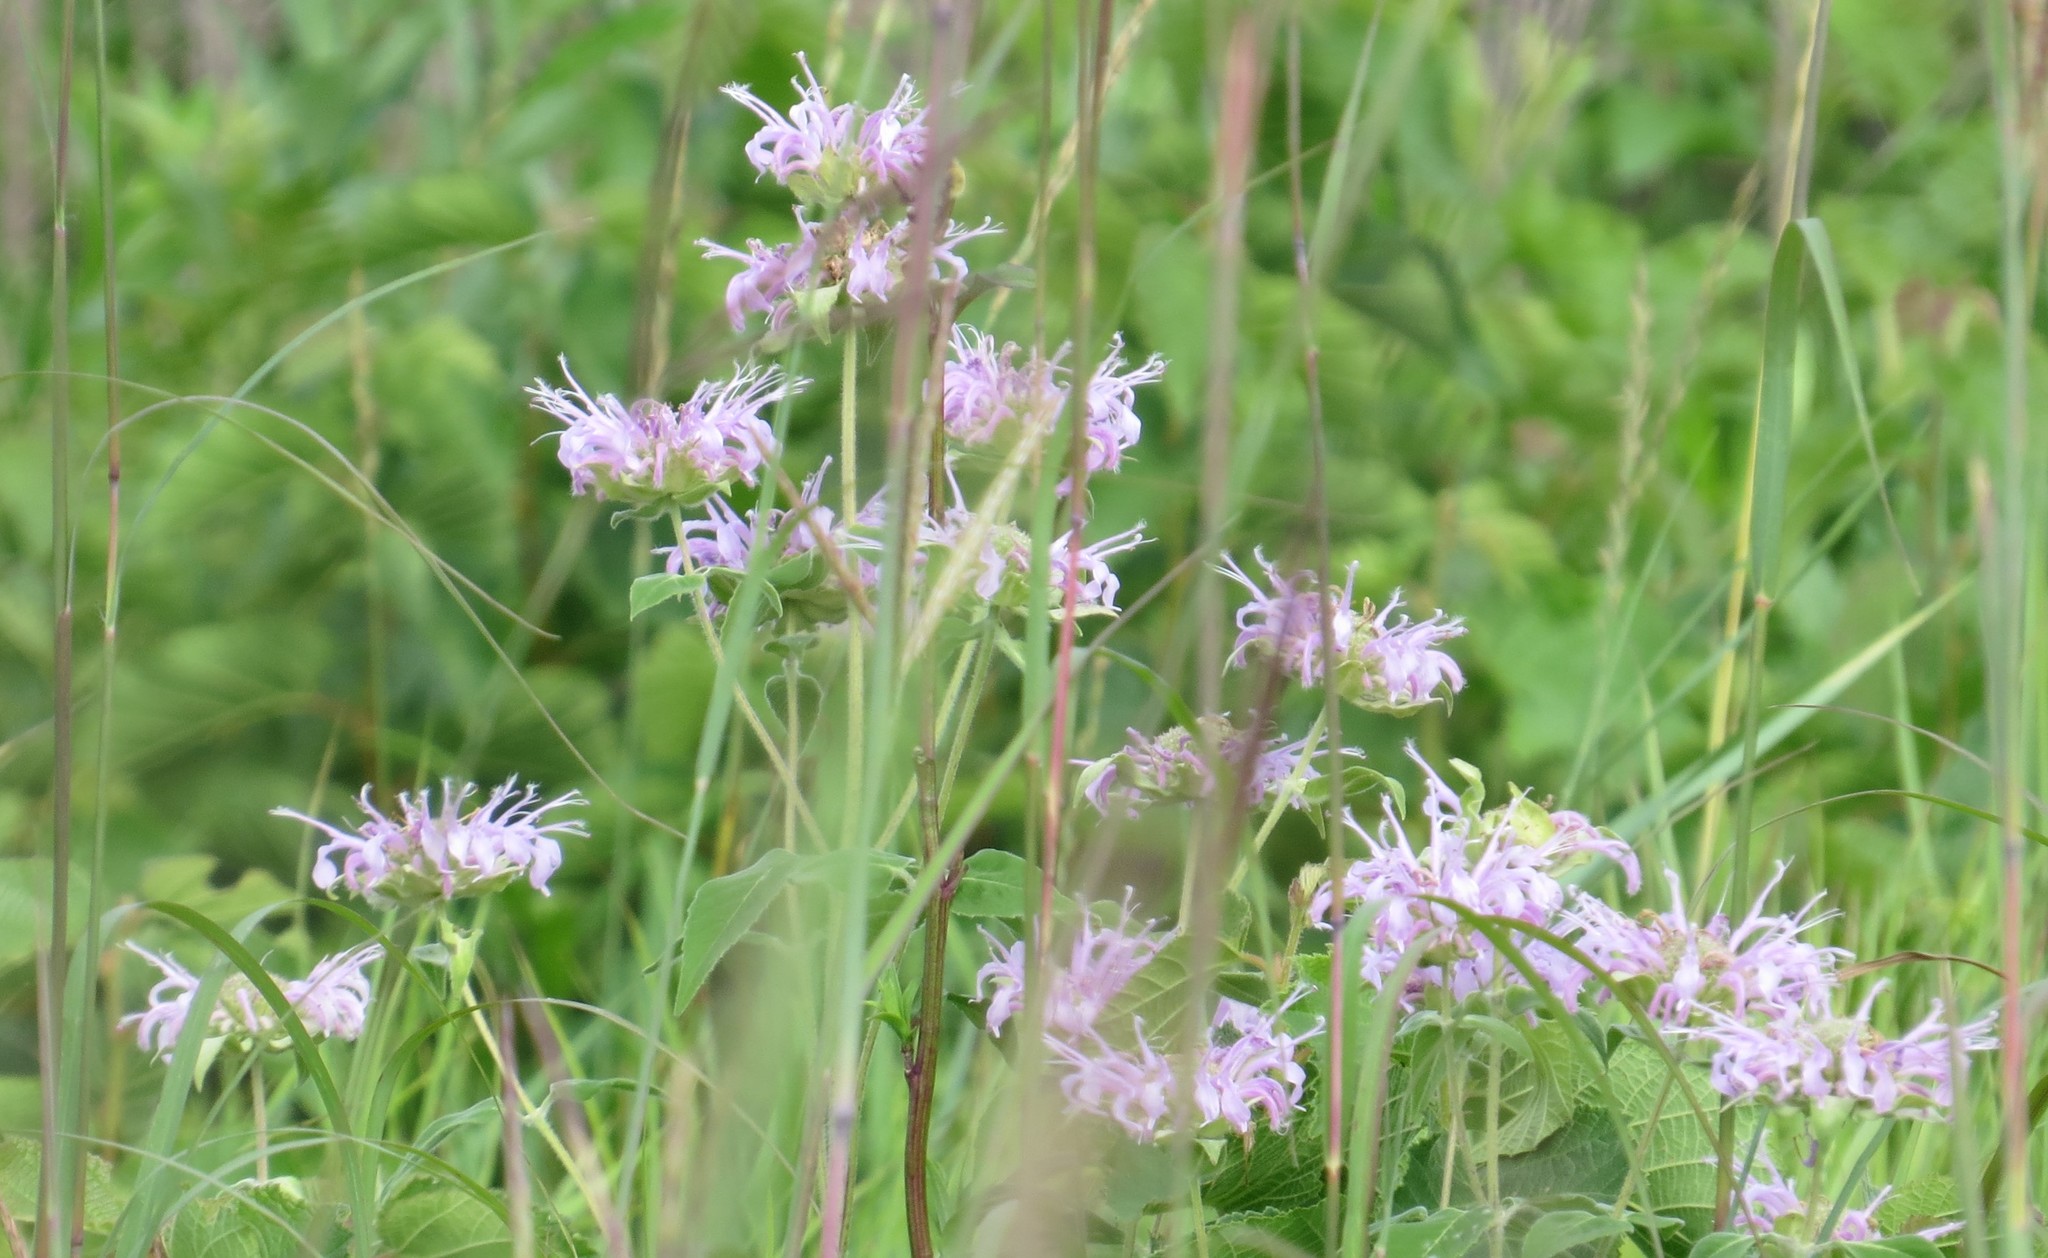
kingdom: Plantae
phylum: Tracheophyta
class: Magnoliopsida
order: Lamiales
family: Lamiaceae
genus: Monarda
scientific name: Monarda fistulosa
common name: Purple beebalm
